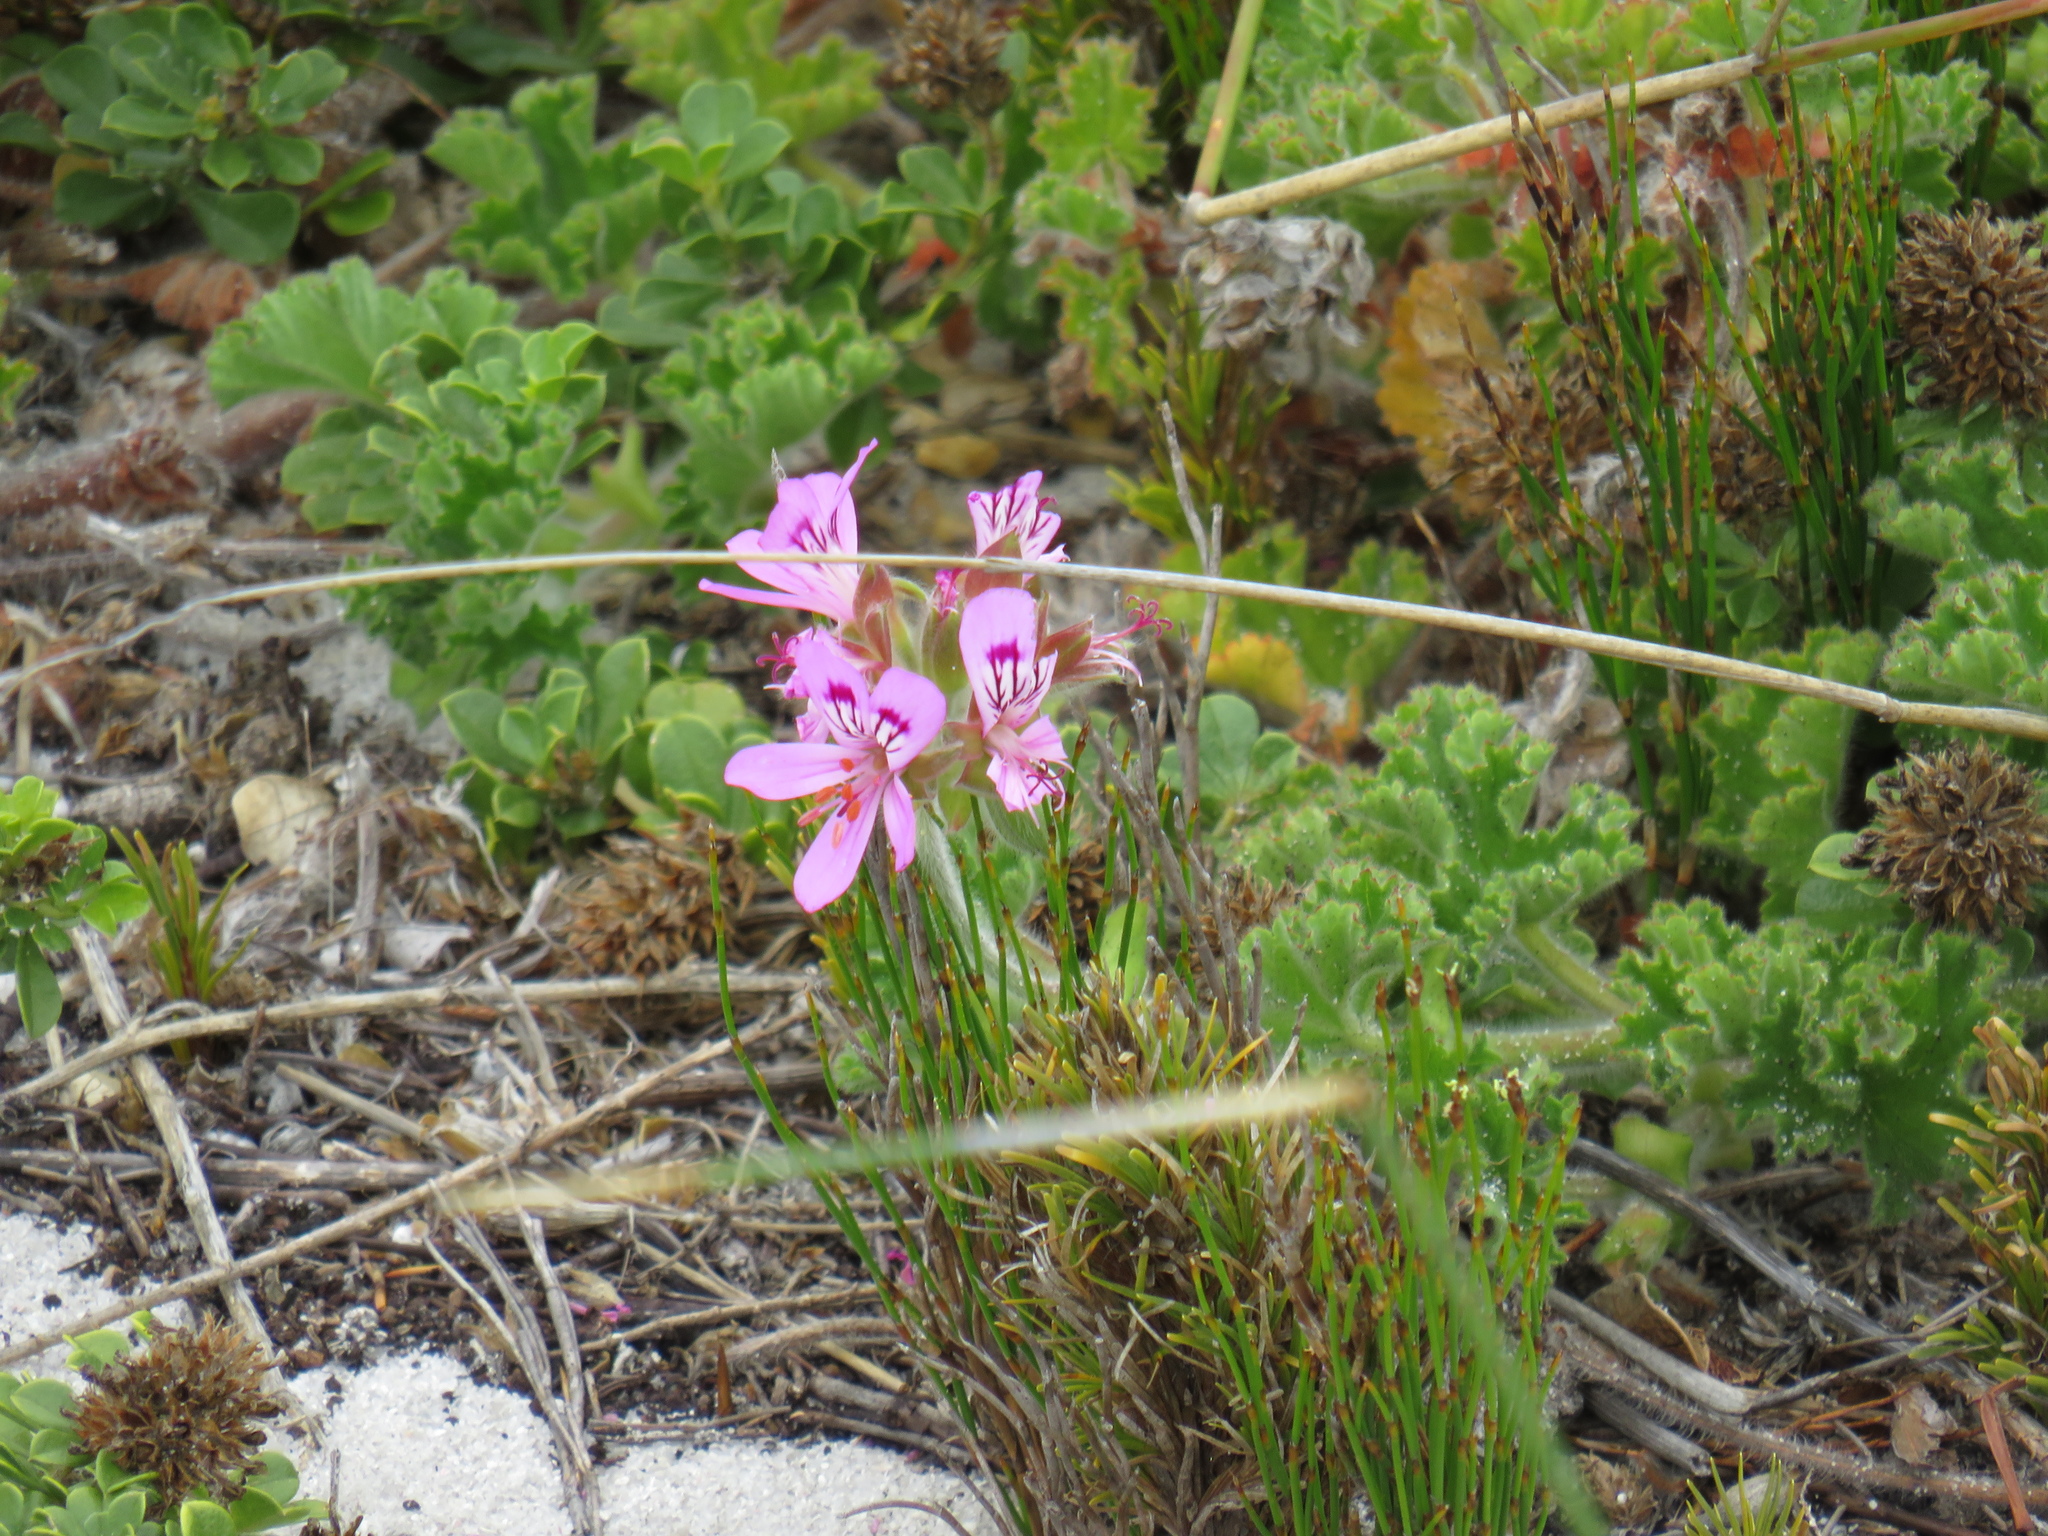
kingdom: Plantae
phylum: Tracheophyta
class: Magnoliopsida
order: Geraniales
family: Geraniaceae
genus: Pelargonium
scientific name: Pelargonium capitatum
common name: Rose scented geranium
